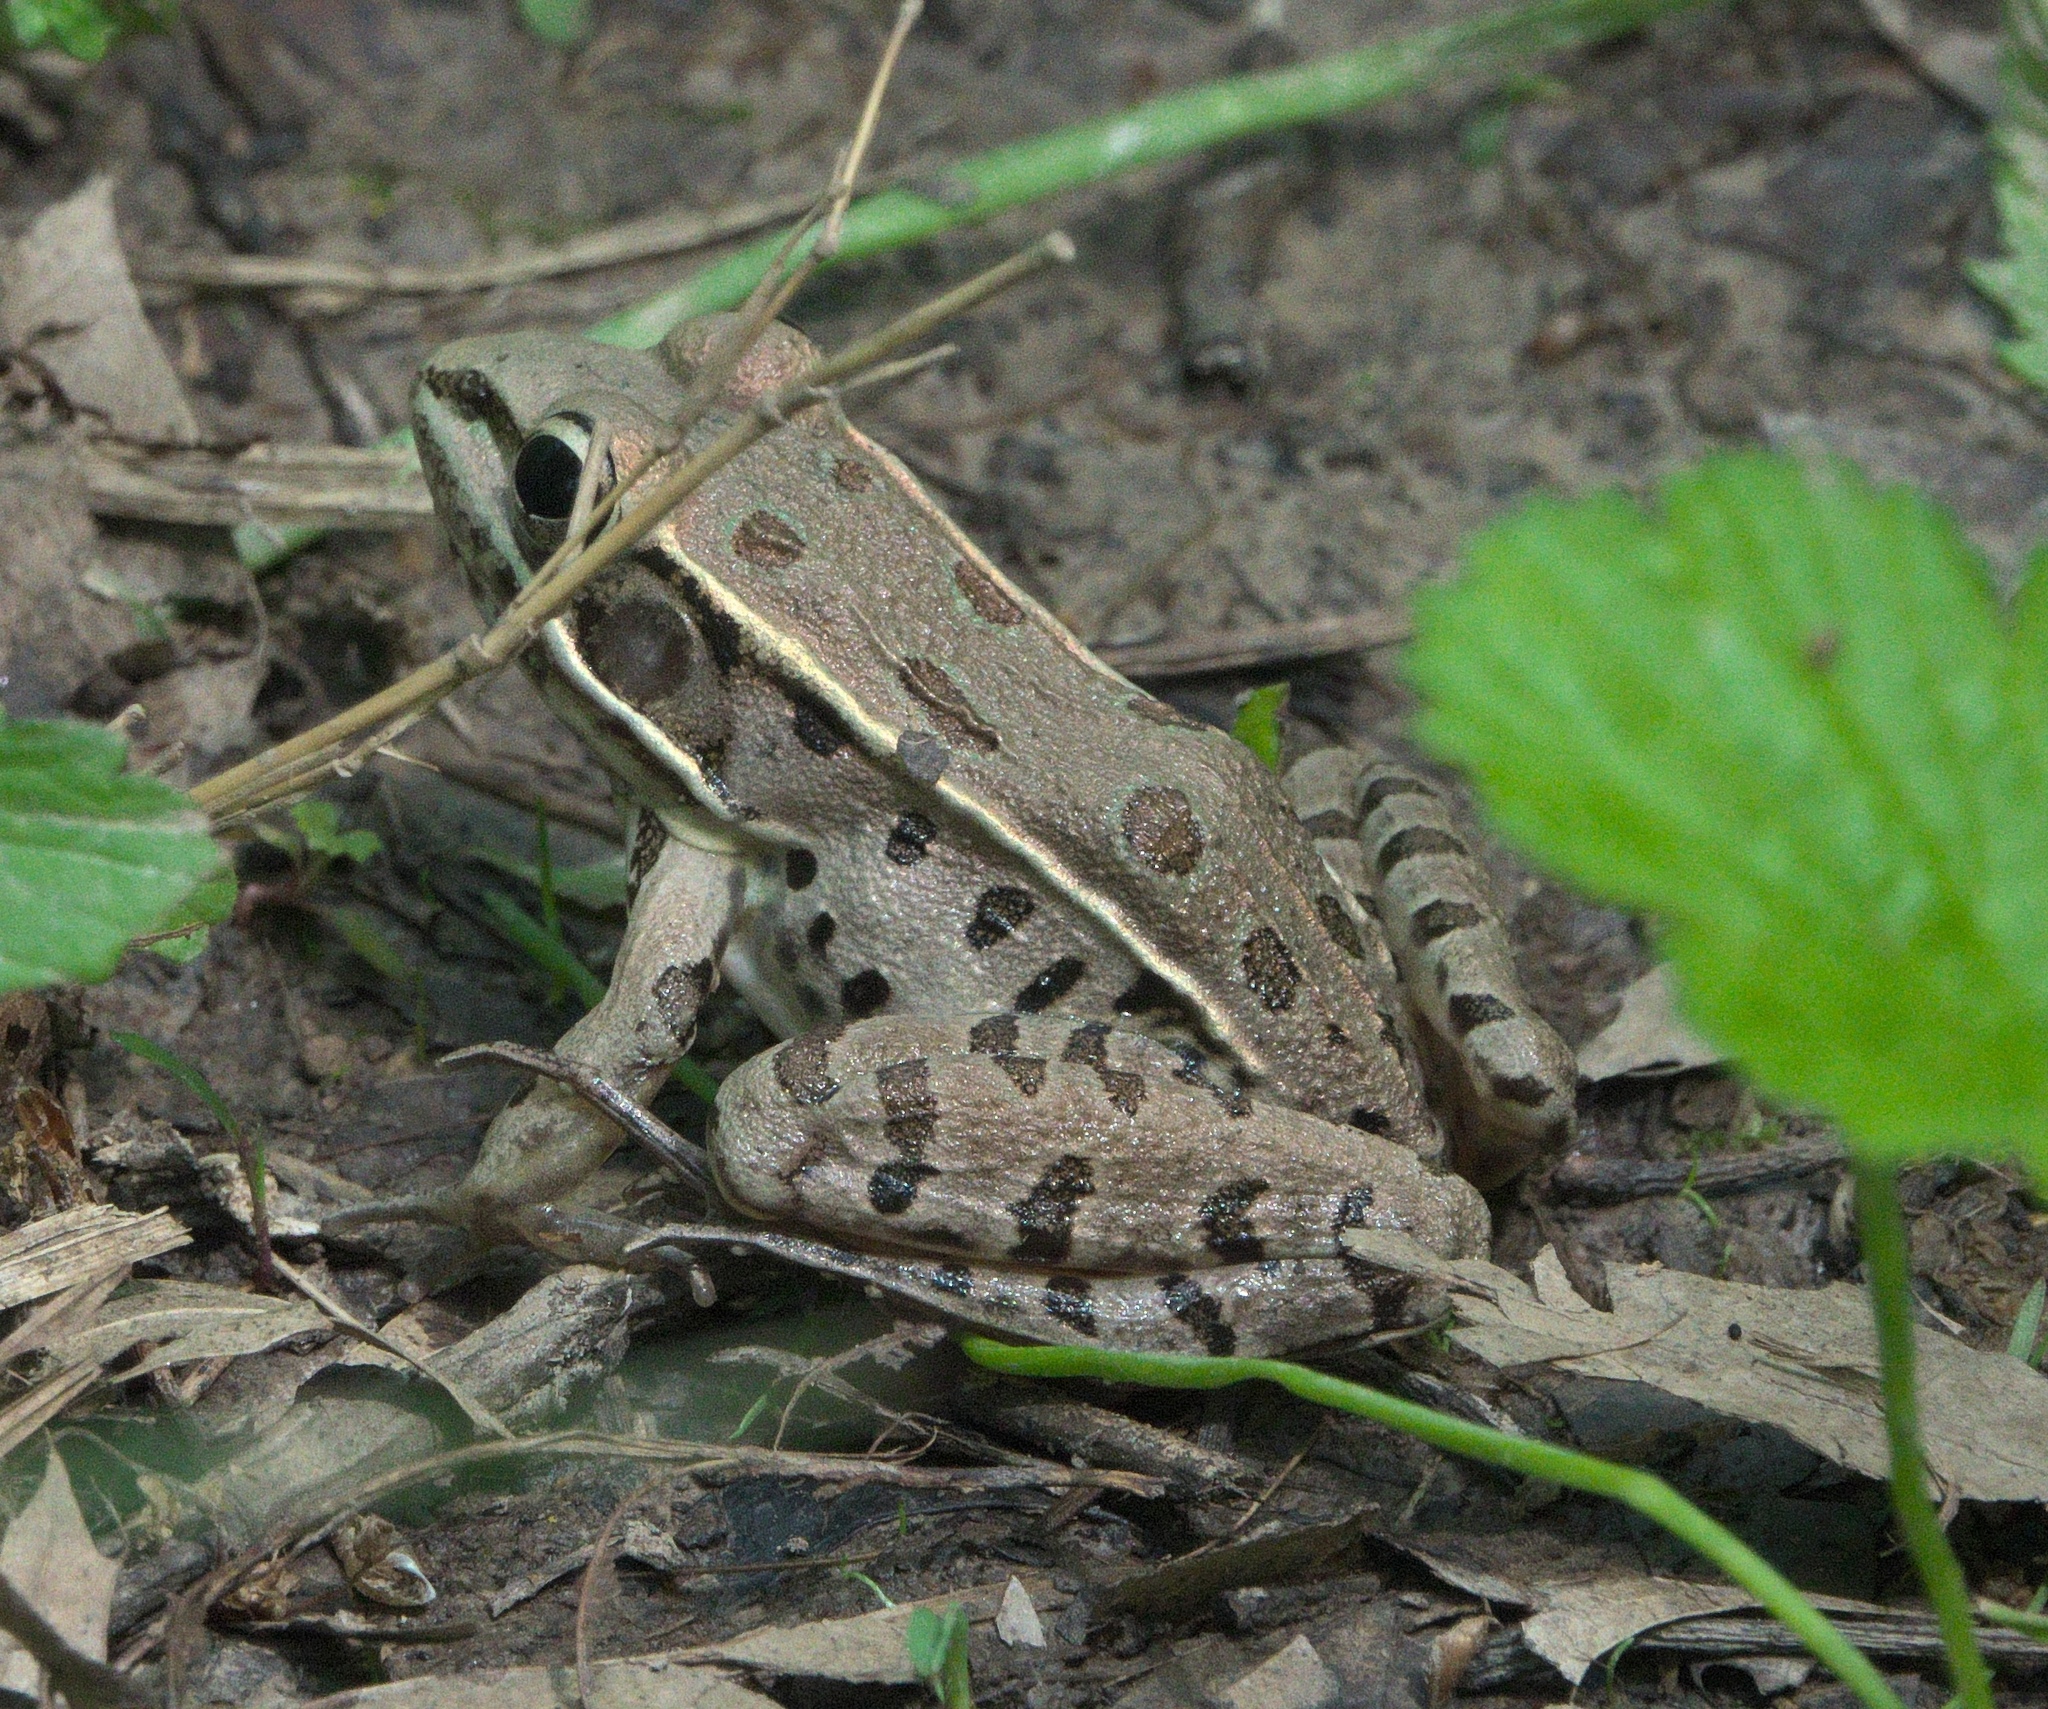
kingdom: Animalia
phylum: Chordata
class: Amphibia
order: Anura
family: Ranidae
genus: Lithobates
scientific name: Lithobates sphenocephalus
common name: Southern leopard frog
